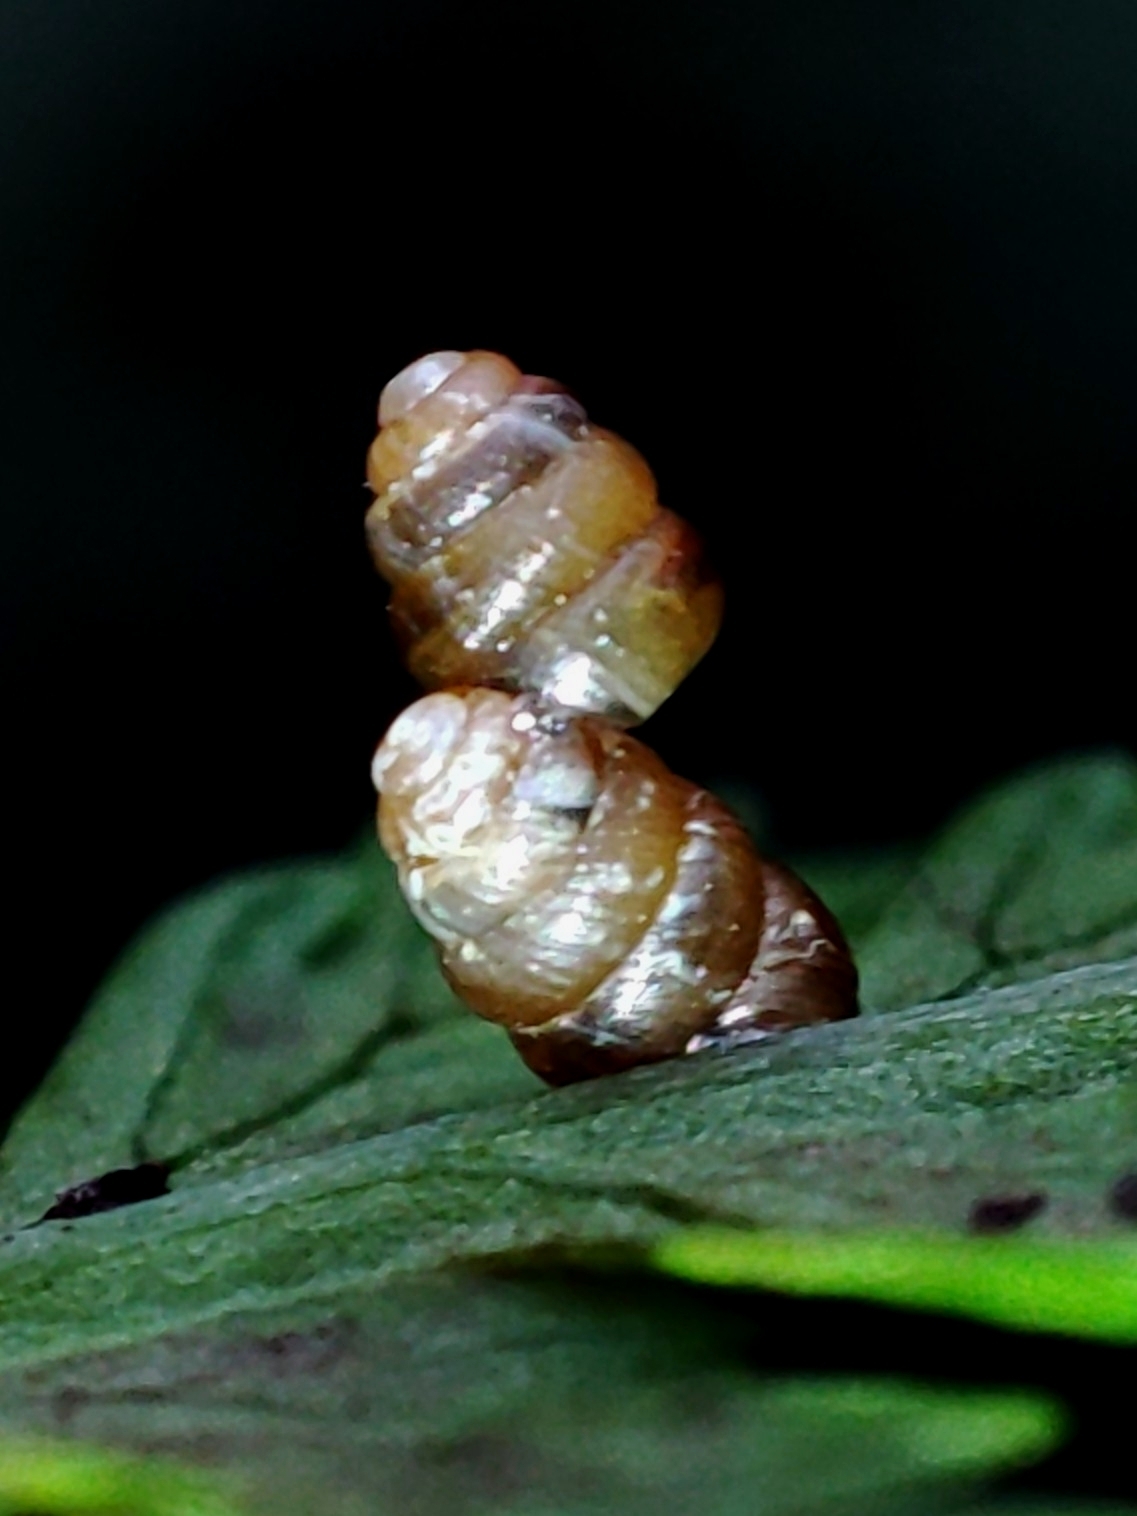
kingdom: Animalia
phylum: Mollusca
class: Gastropoda
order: Stylommatophora
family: Truncatellinidae
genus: Columella
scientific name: Columella edentula
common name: Toothless chrysalis snail
